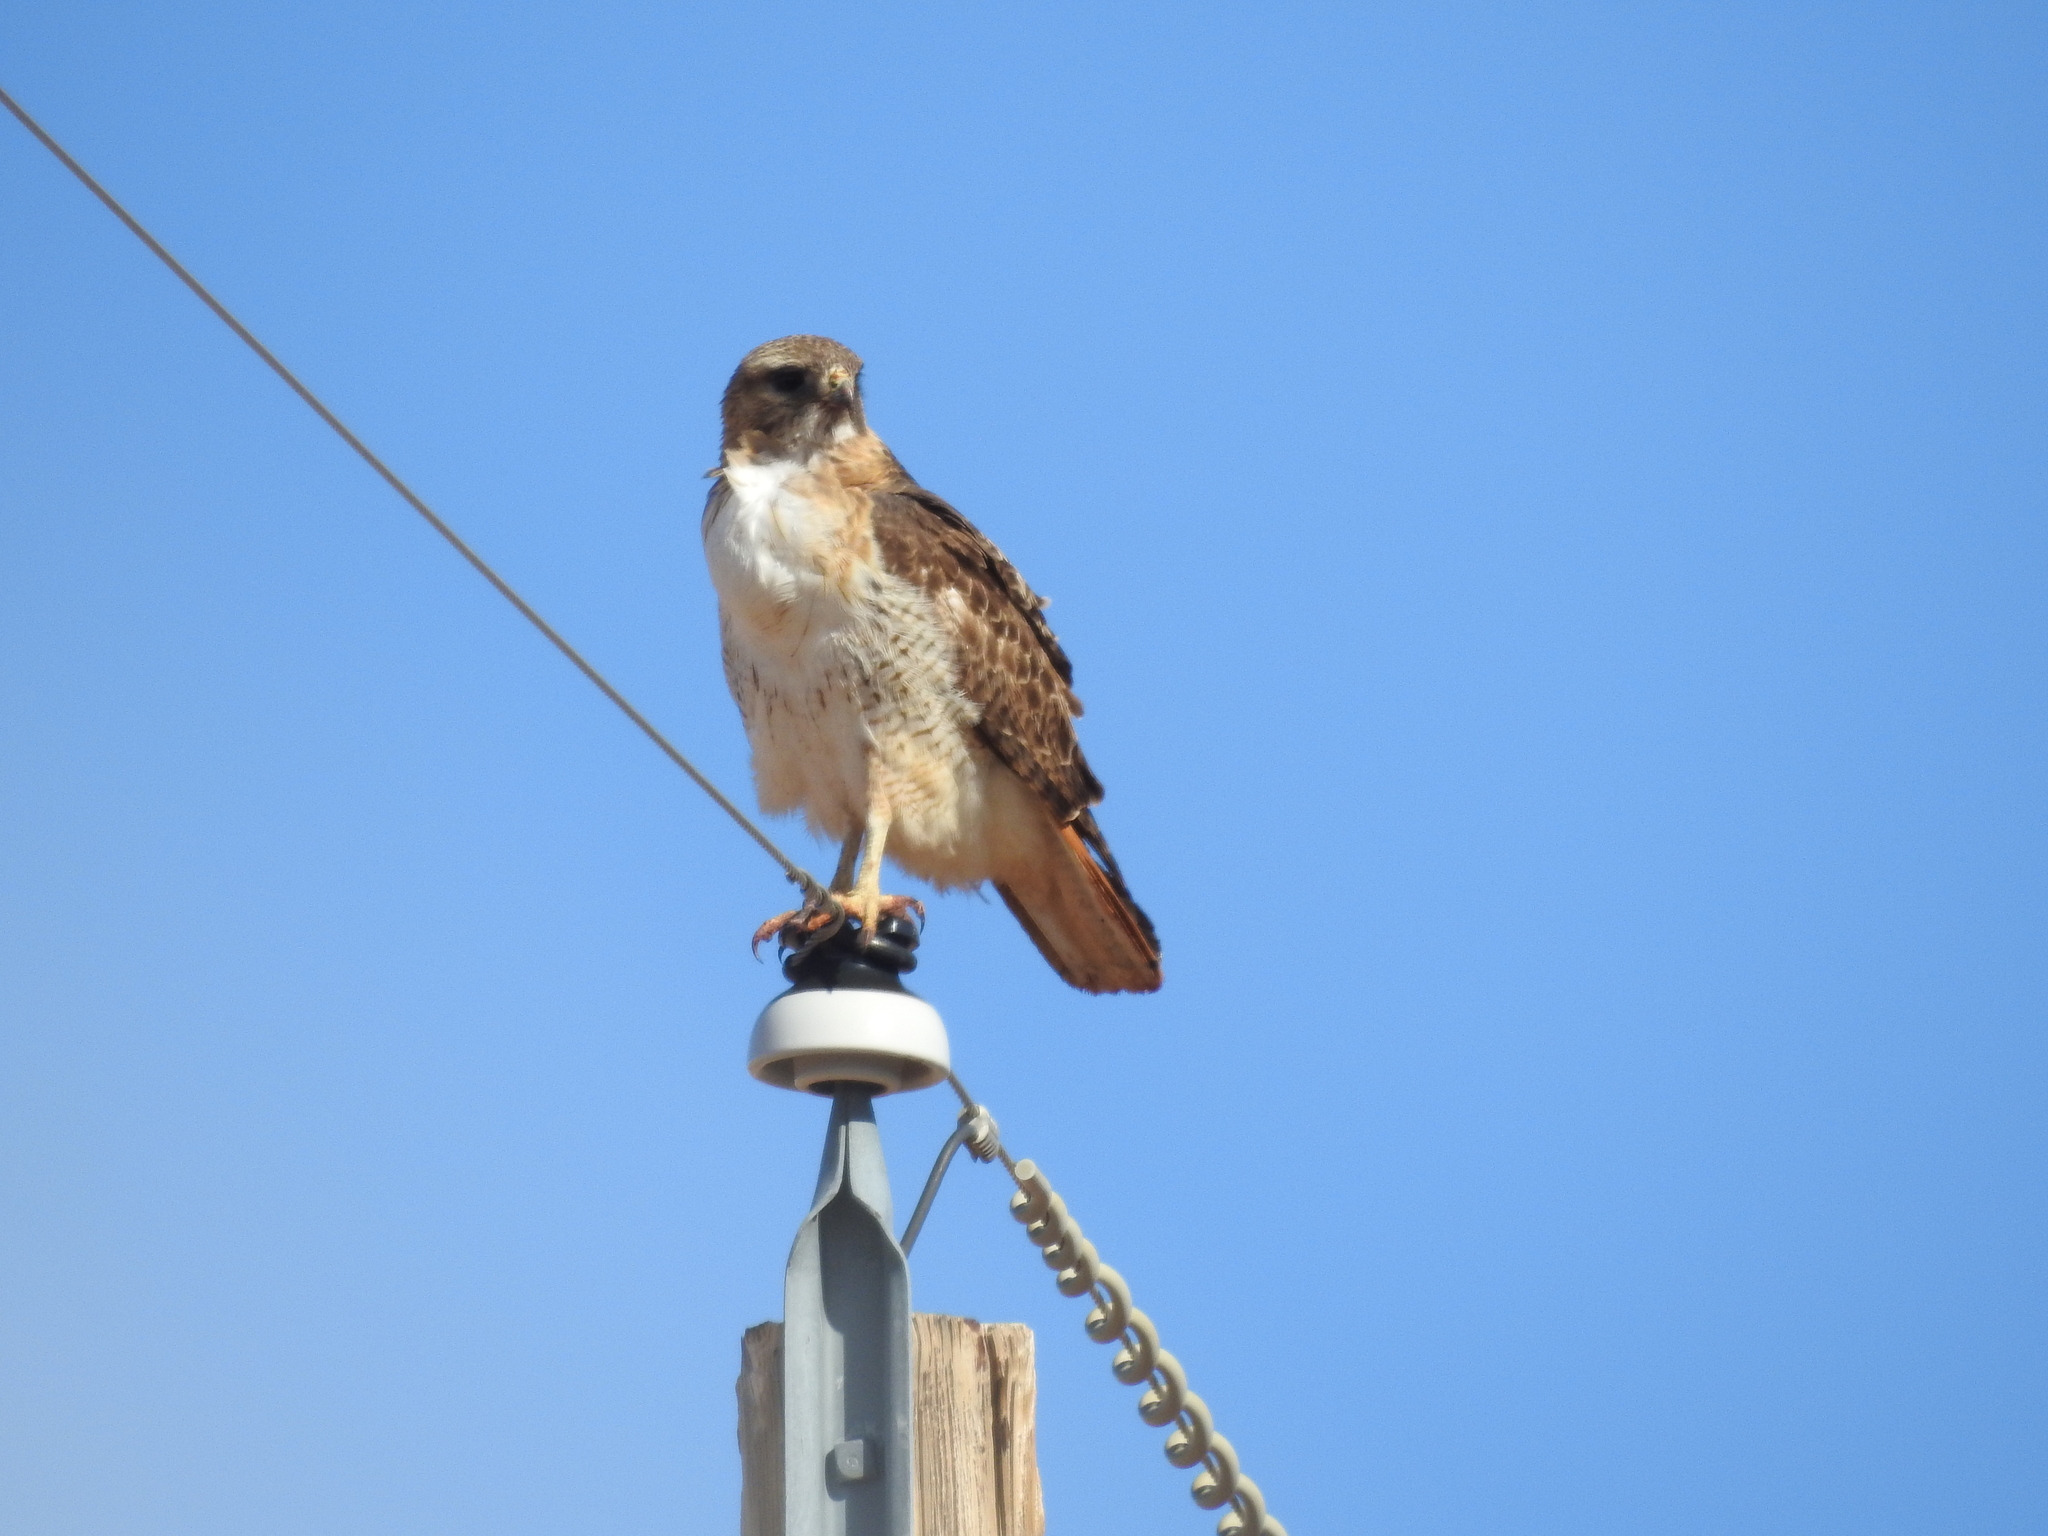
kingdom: Animalia
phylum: Chordata
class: Aves
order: Accipitriformes
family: Accipitridae
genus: Buteo
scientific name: Buteo jamaicensis
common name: Red-tailed hawk
